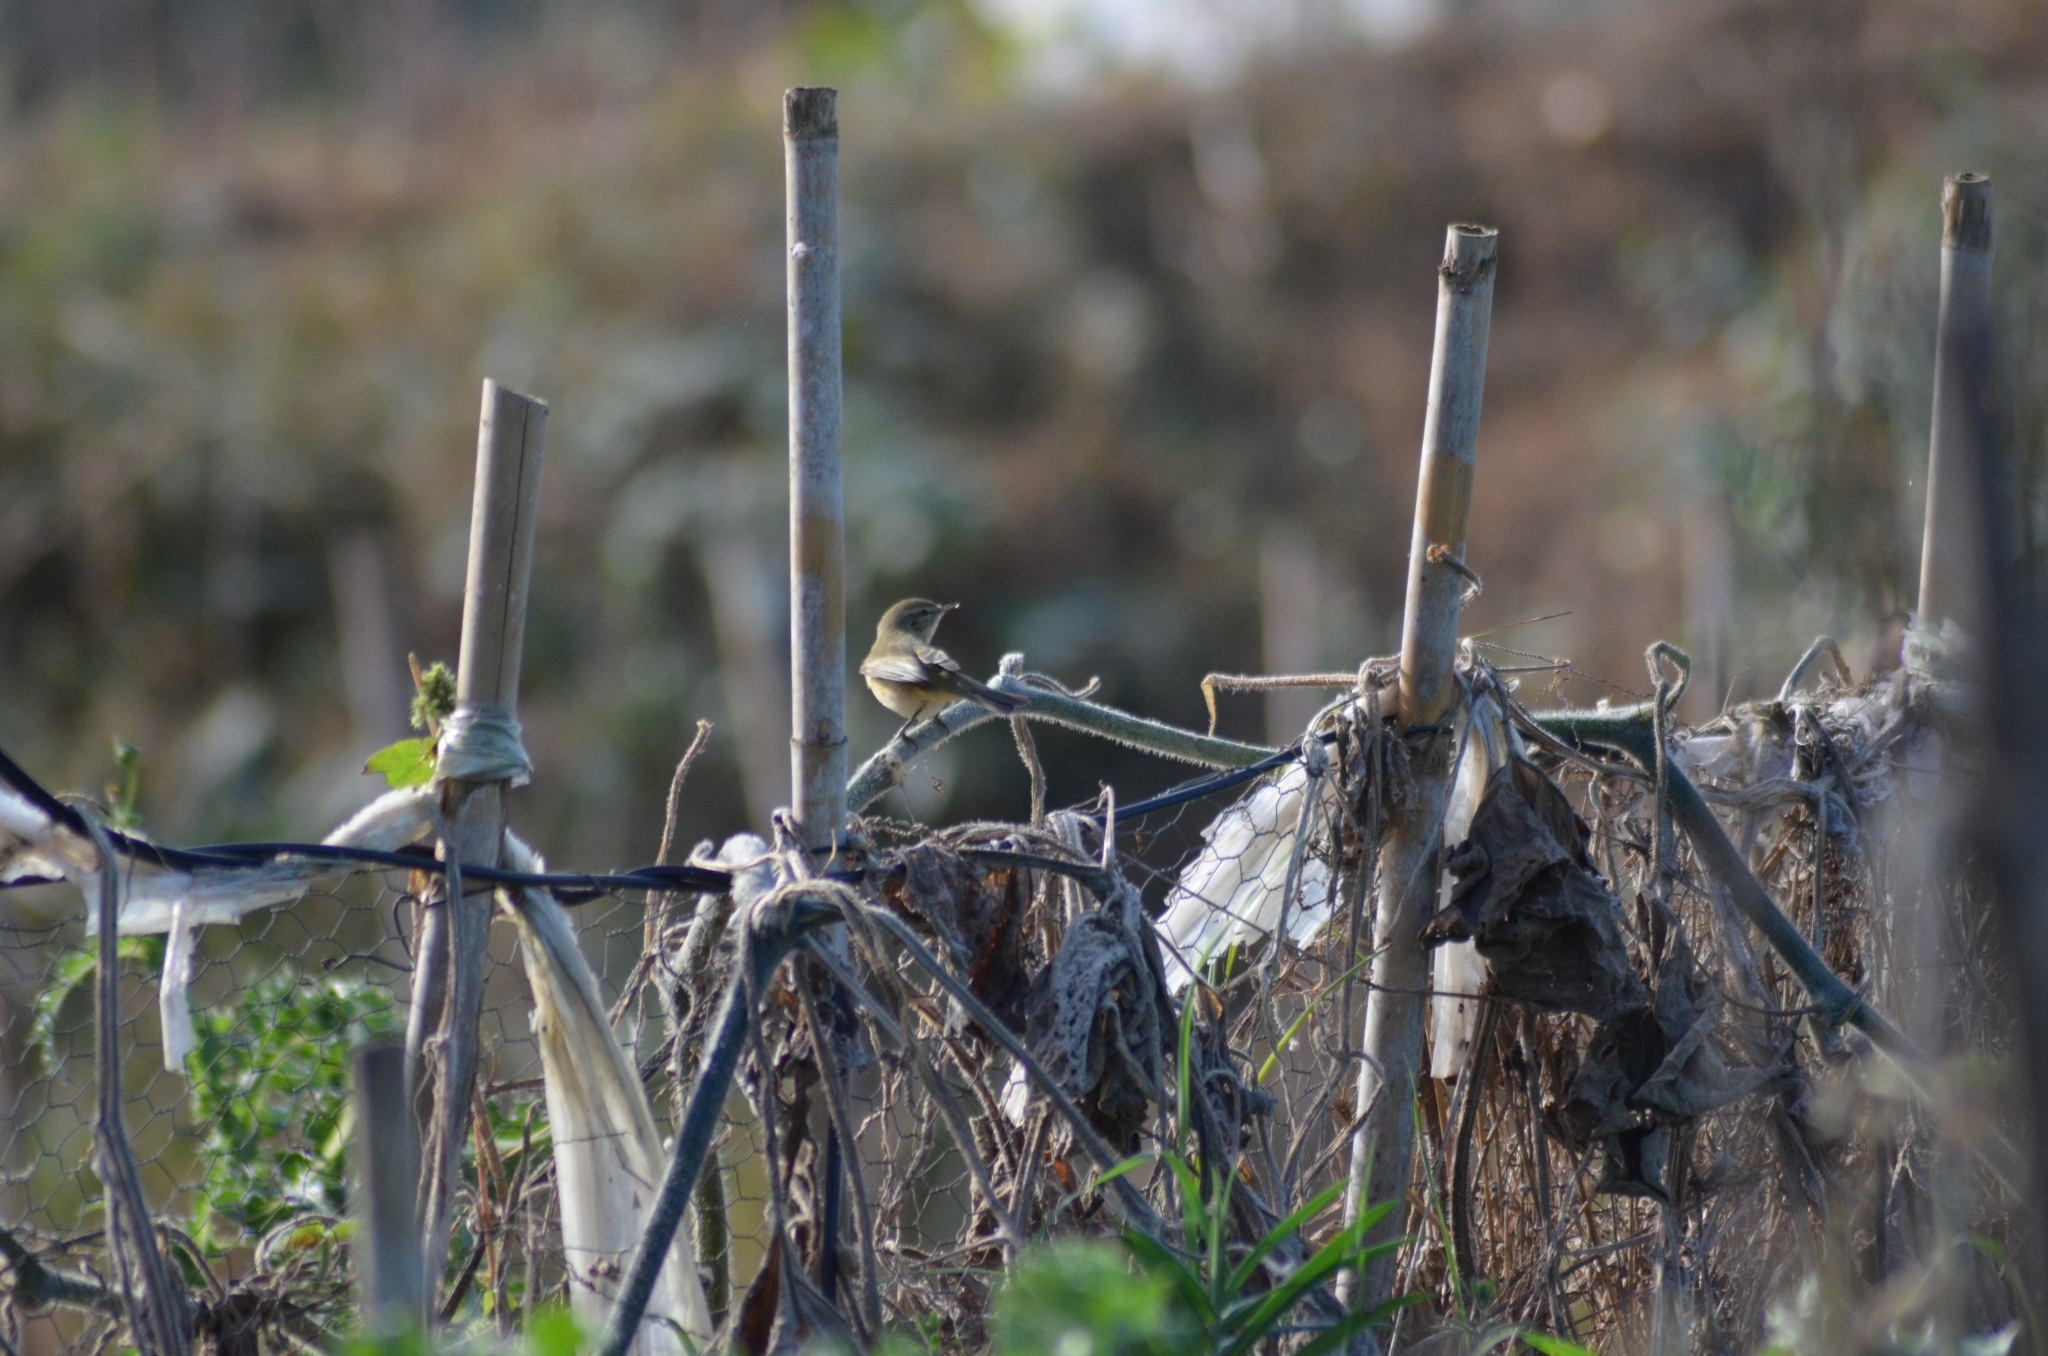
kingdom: Animalia
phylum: Chordata
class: Aves
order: Passeriformes
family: Phylloscopidae
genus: Phylloscopus
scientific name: Phylloscopus collybita
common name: Common chiffchaff
